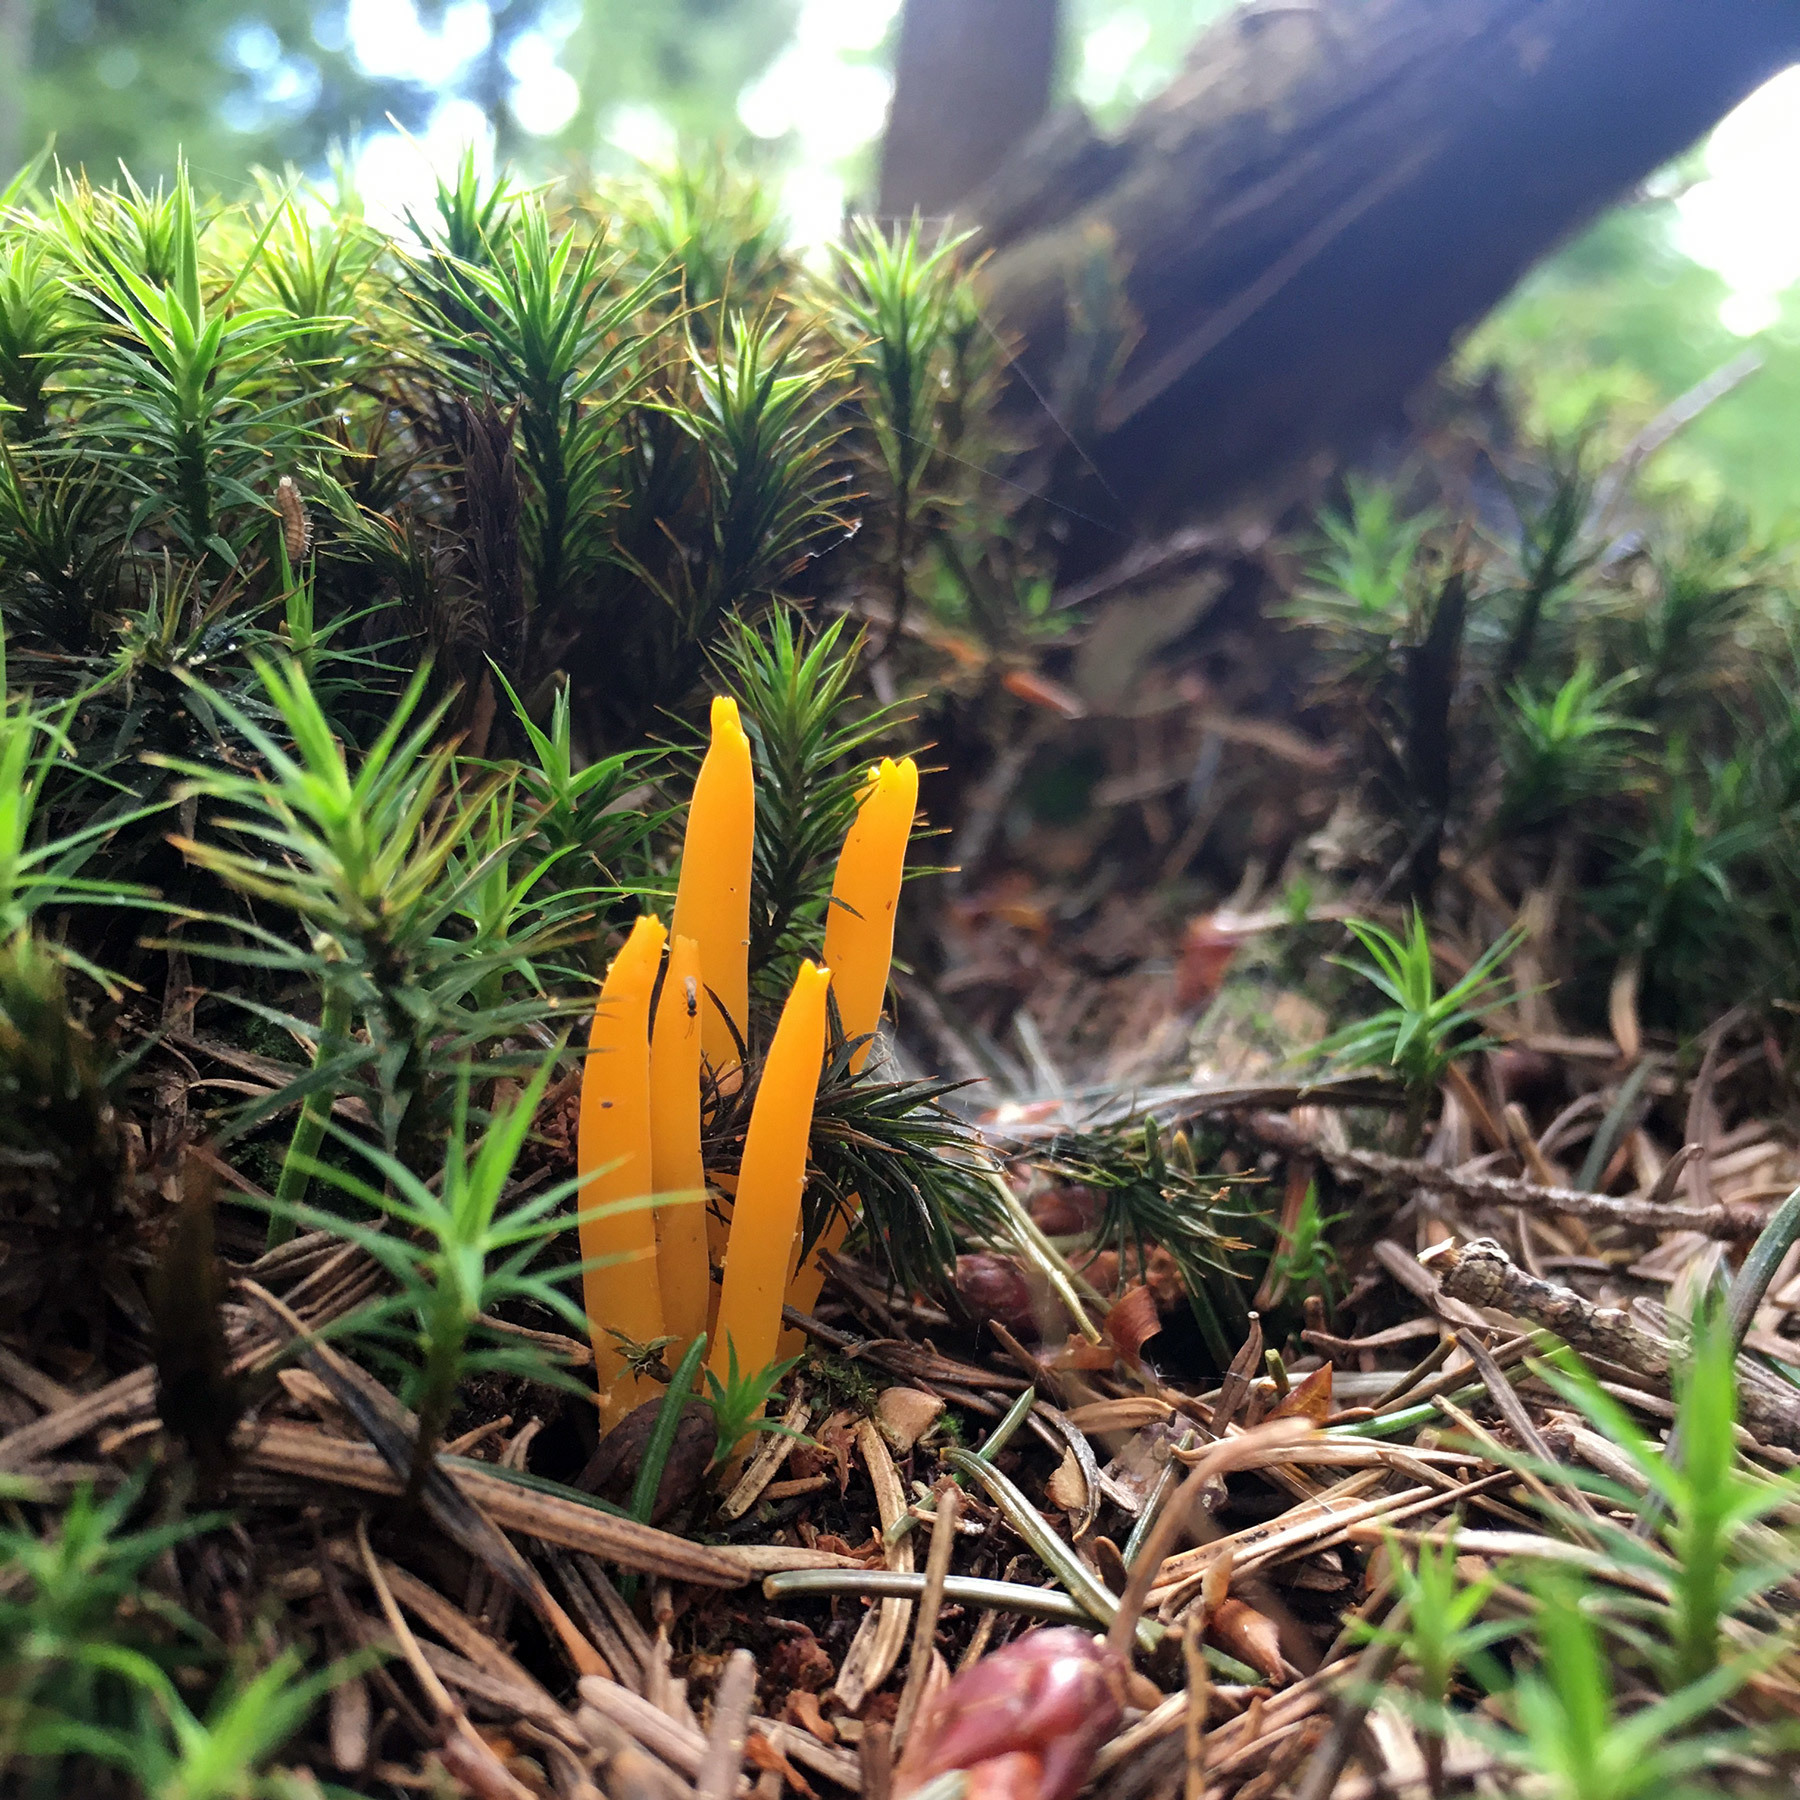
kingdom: Fungi
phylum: Basidiomycota
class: Dacrymycetes
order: Dacrymycetales
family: Dacrymycetaceae
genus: Calocera
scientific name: Calocera viscosa
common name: Yellow stagshorn
